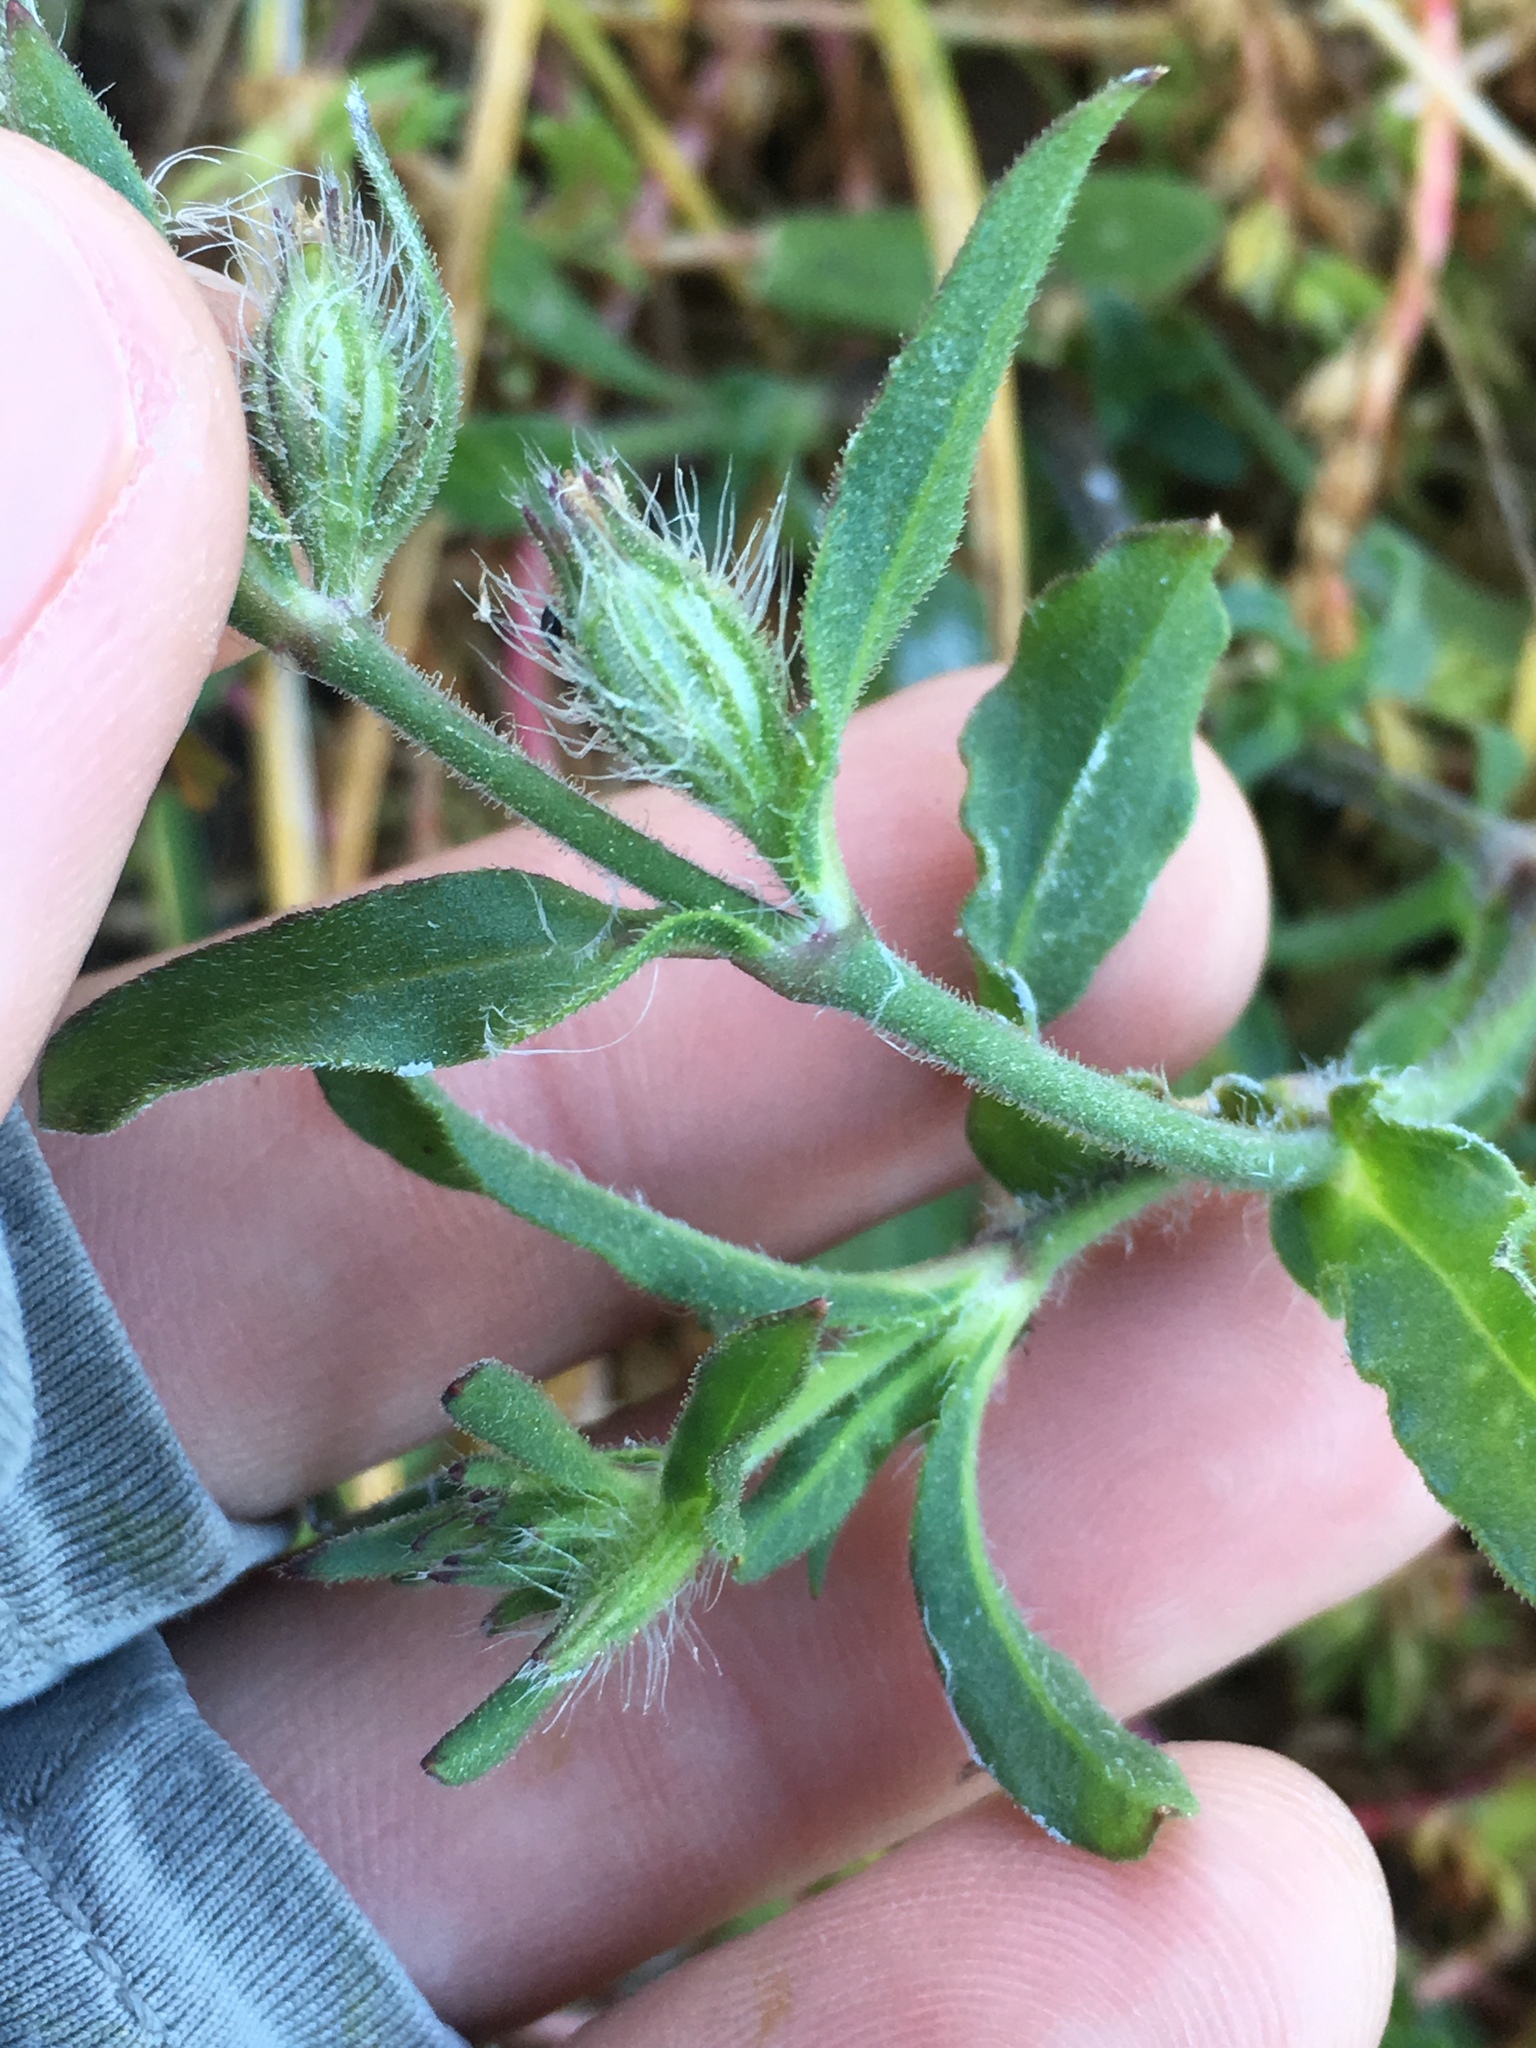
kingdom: Plantae
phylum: Tracheophyta
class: Magnoliopsida
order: Caryophyllales
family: Caryophyllaceae
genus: Silene
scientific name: Silene gallica
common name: Small-flowered catchfly
